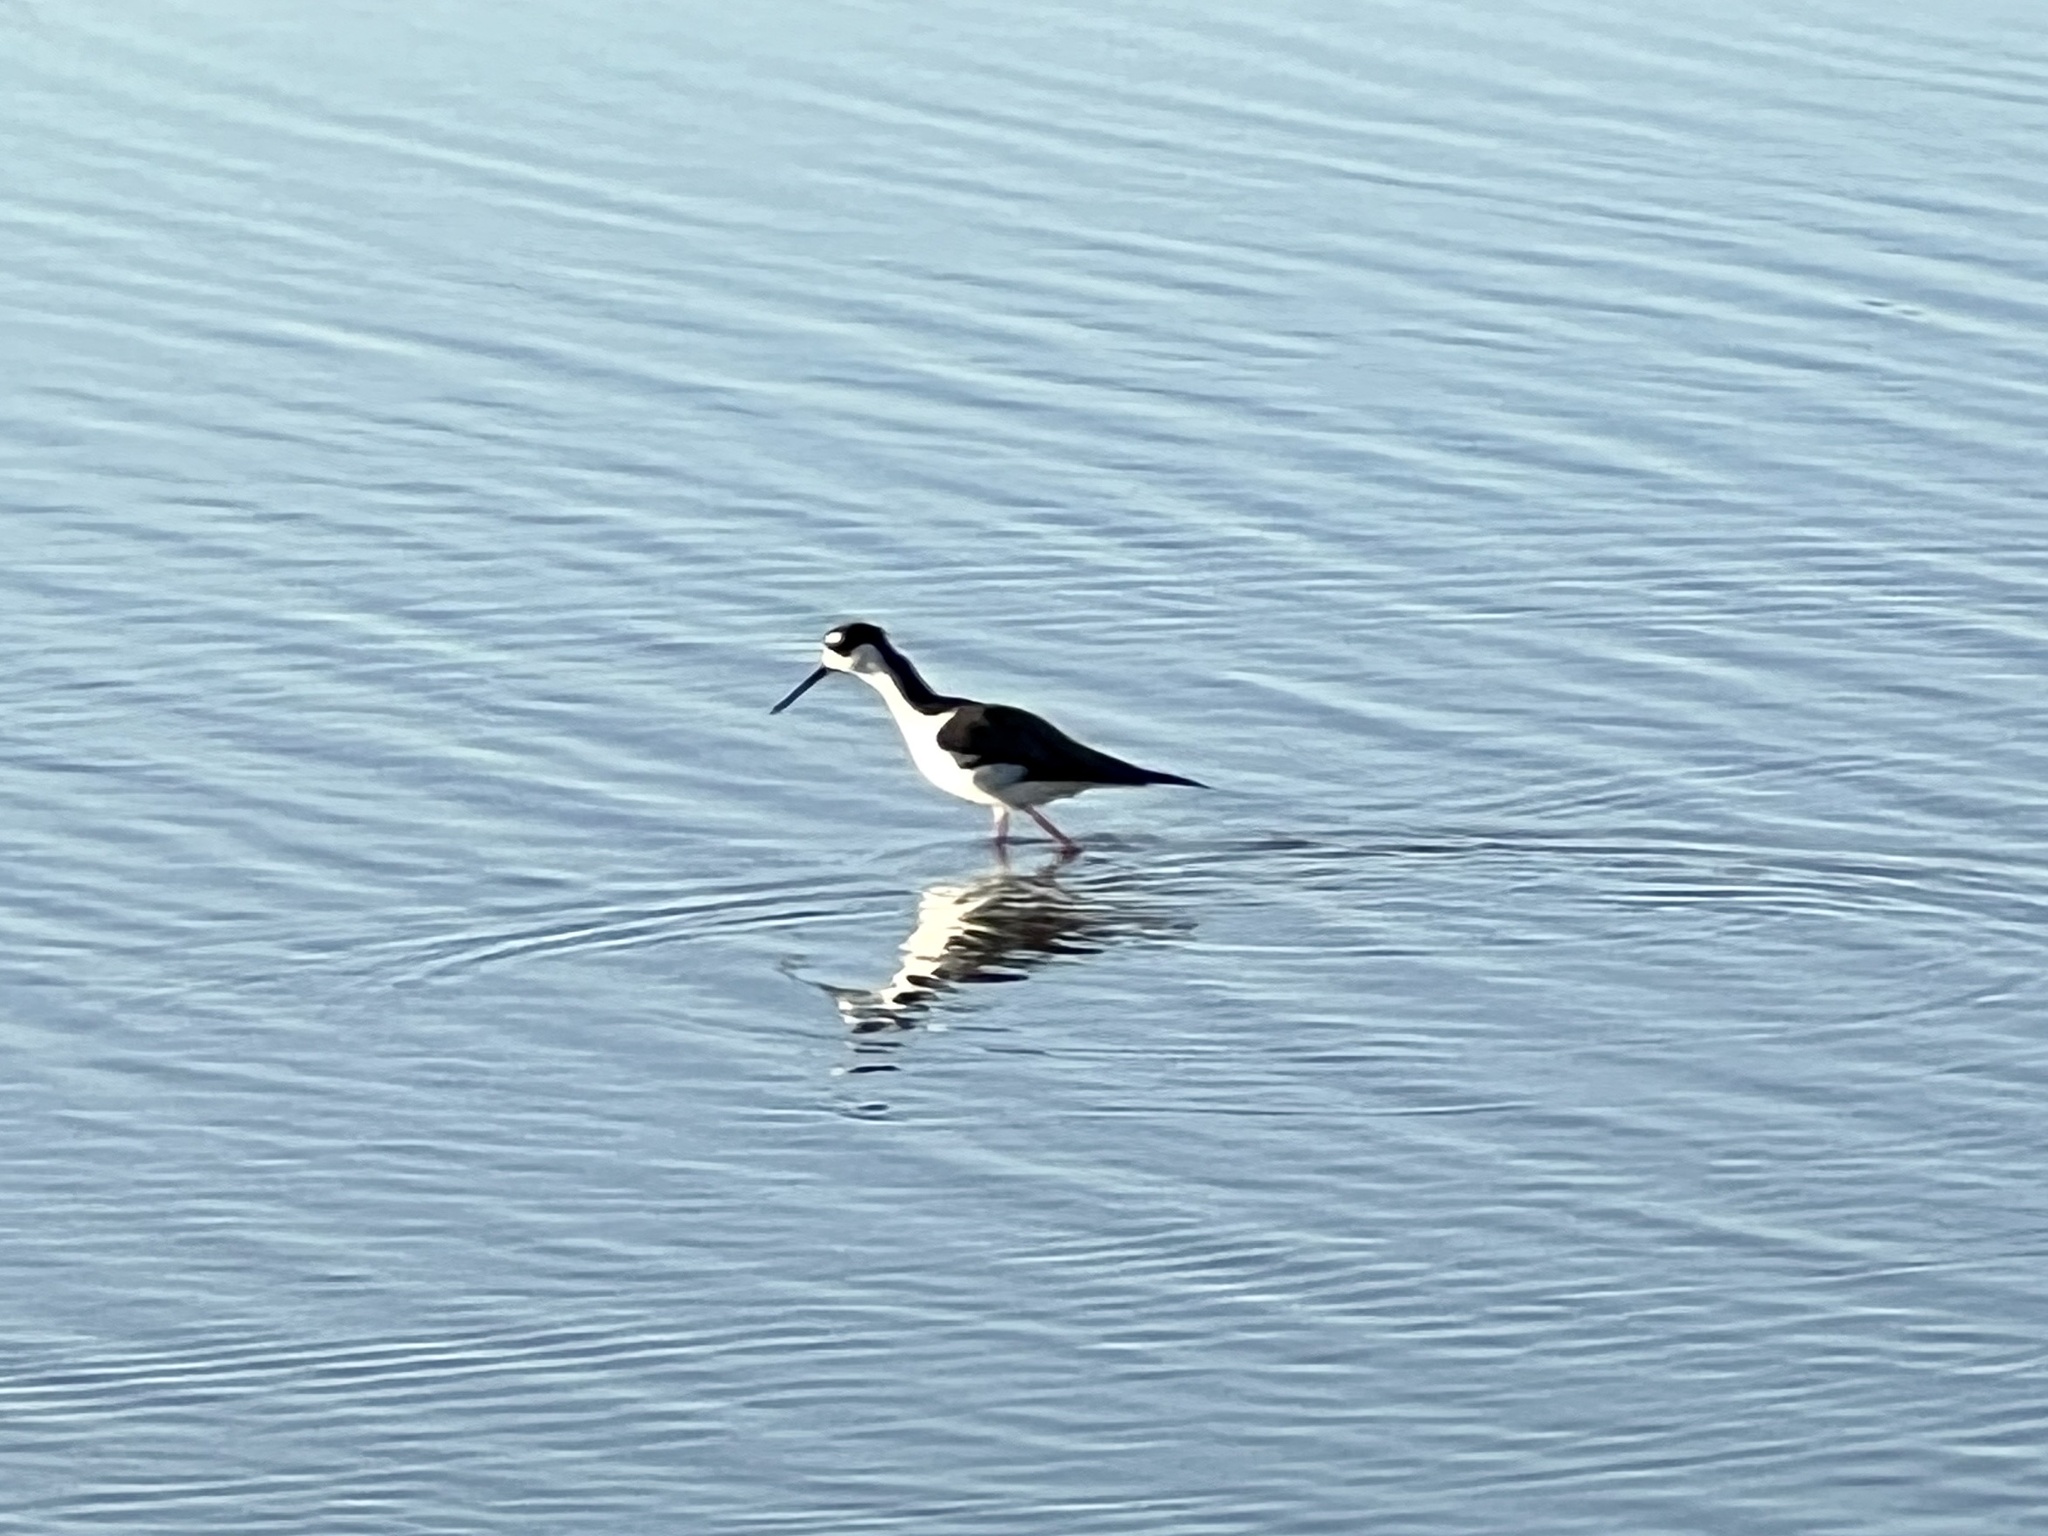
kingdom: Animalia
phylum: Chordata
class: Aves
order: Charadriiformes
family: Recurvirostridae
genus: Himantopus
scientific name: Himantopus mexicanus
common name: Black-necked stilt
